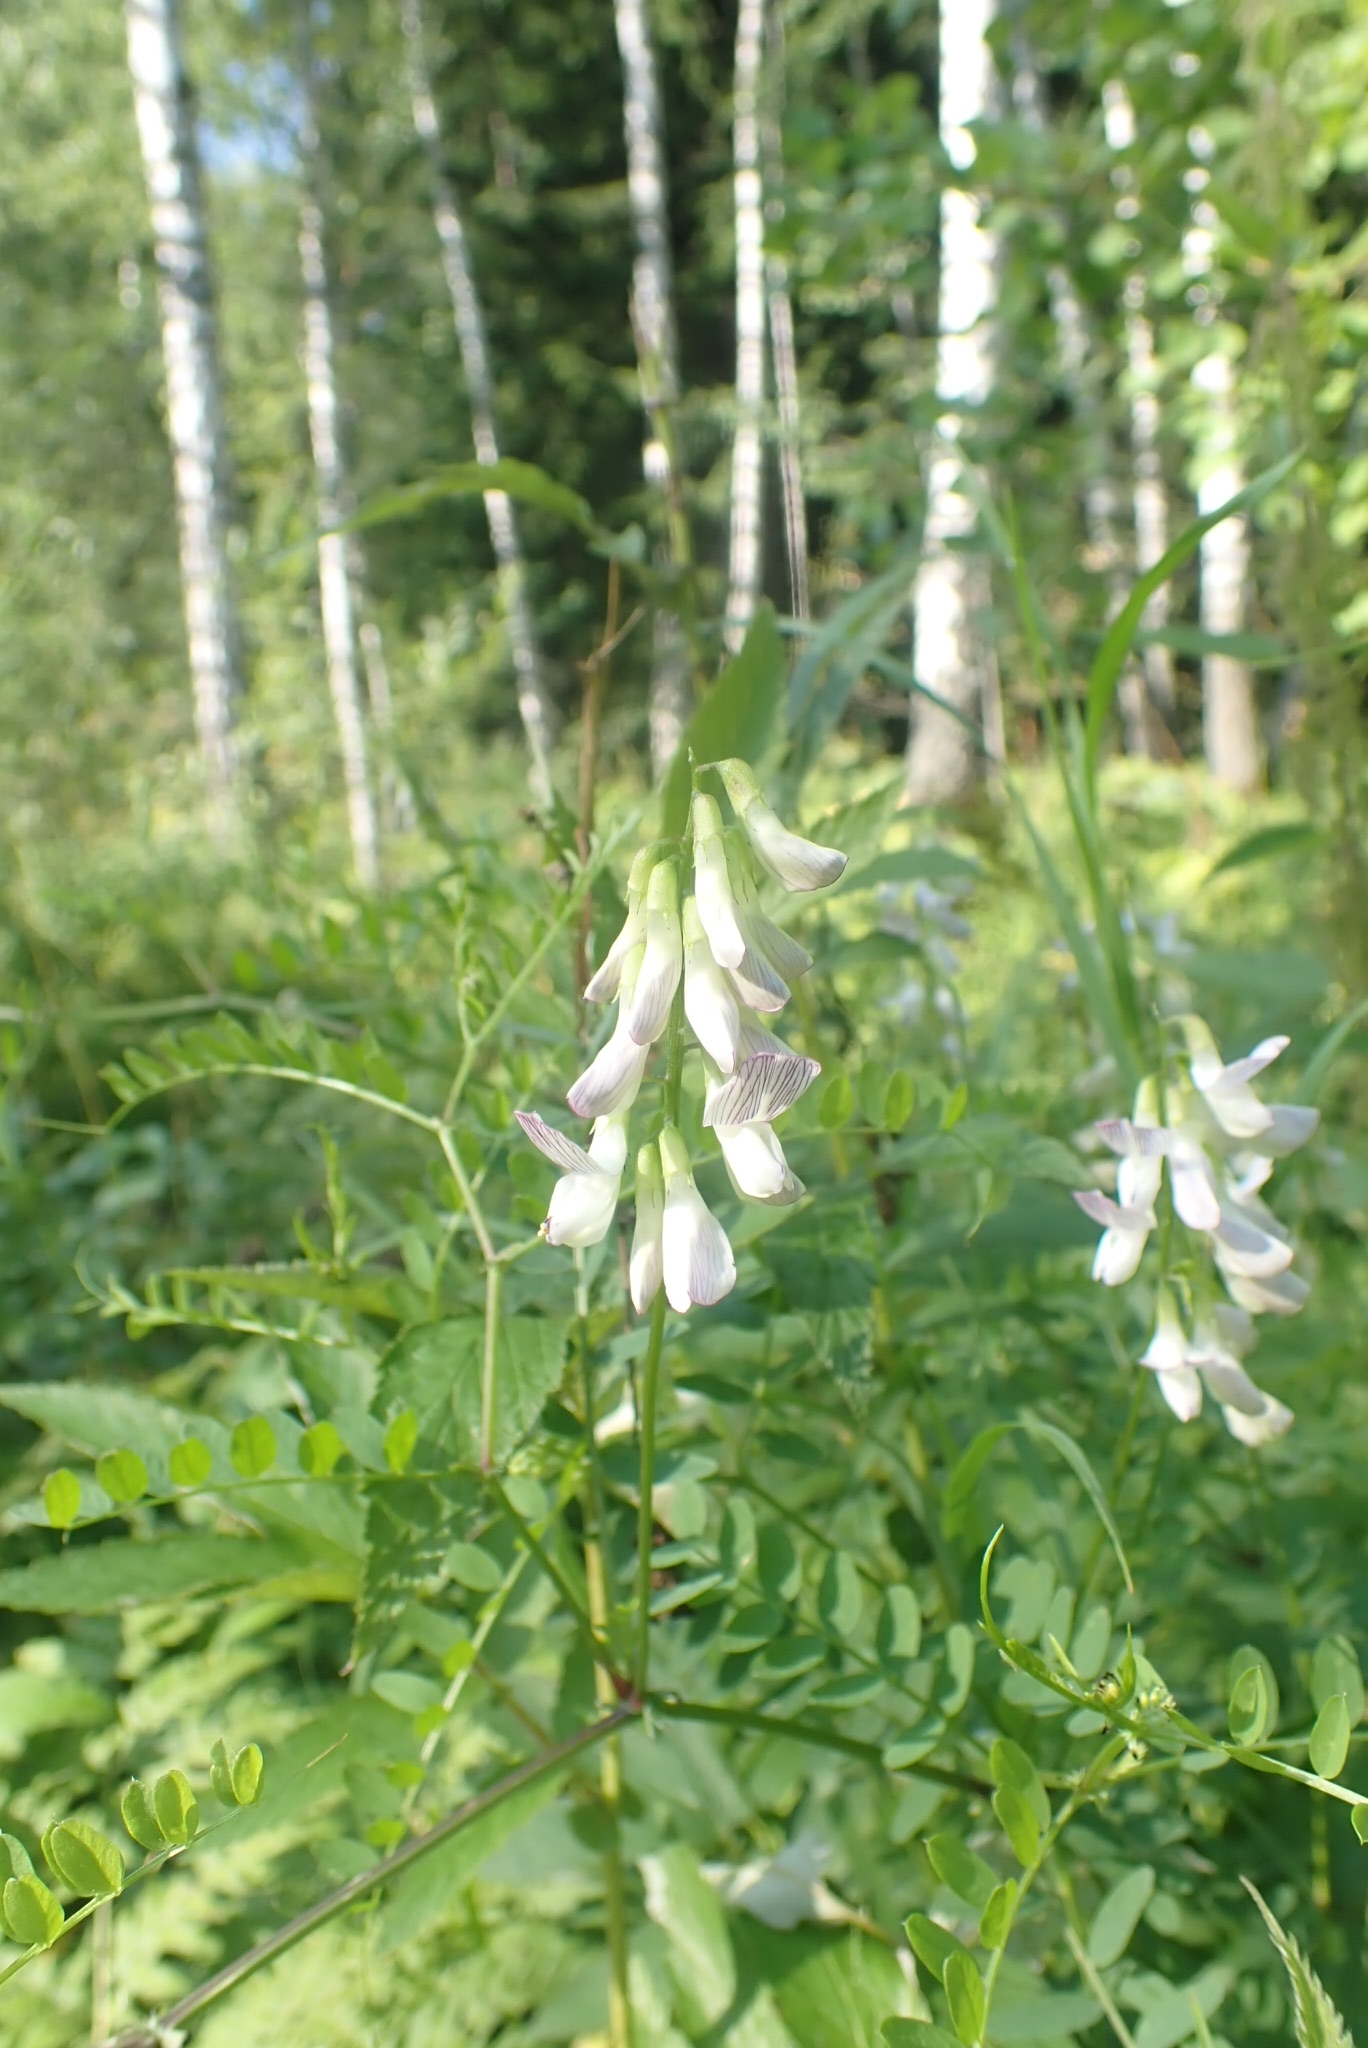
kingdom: Plantae
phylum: Tracheophyta
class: Magnoliopsida
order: Fabales
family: Fabaceae
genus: Vicia
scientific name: Vicia sylvatica
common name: Wood vetch
